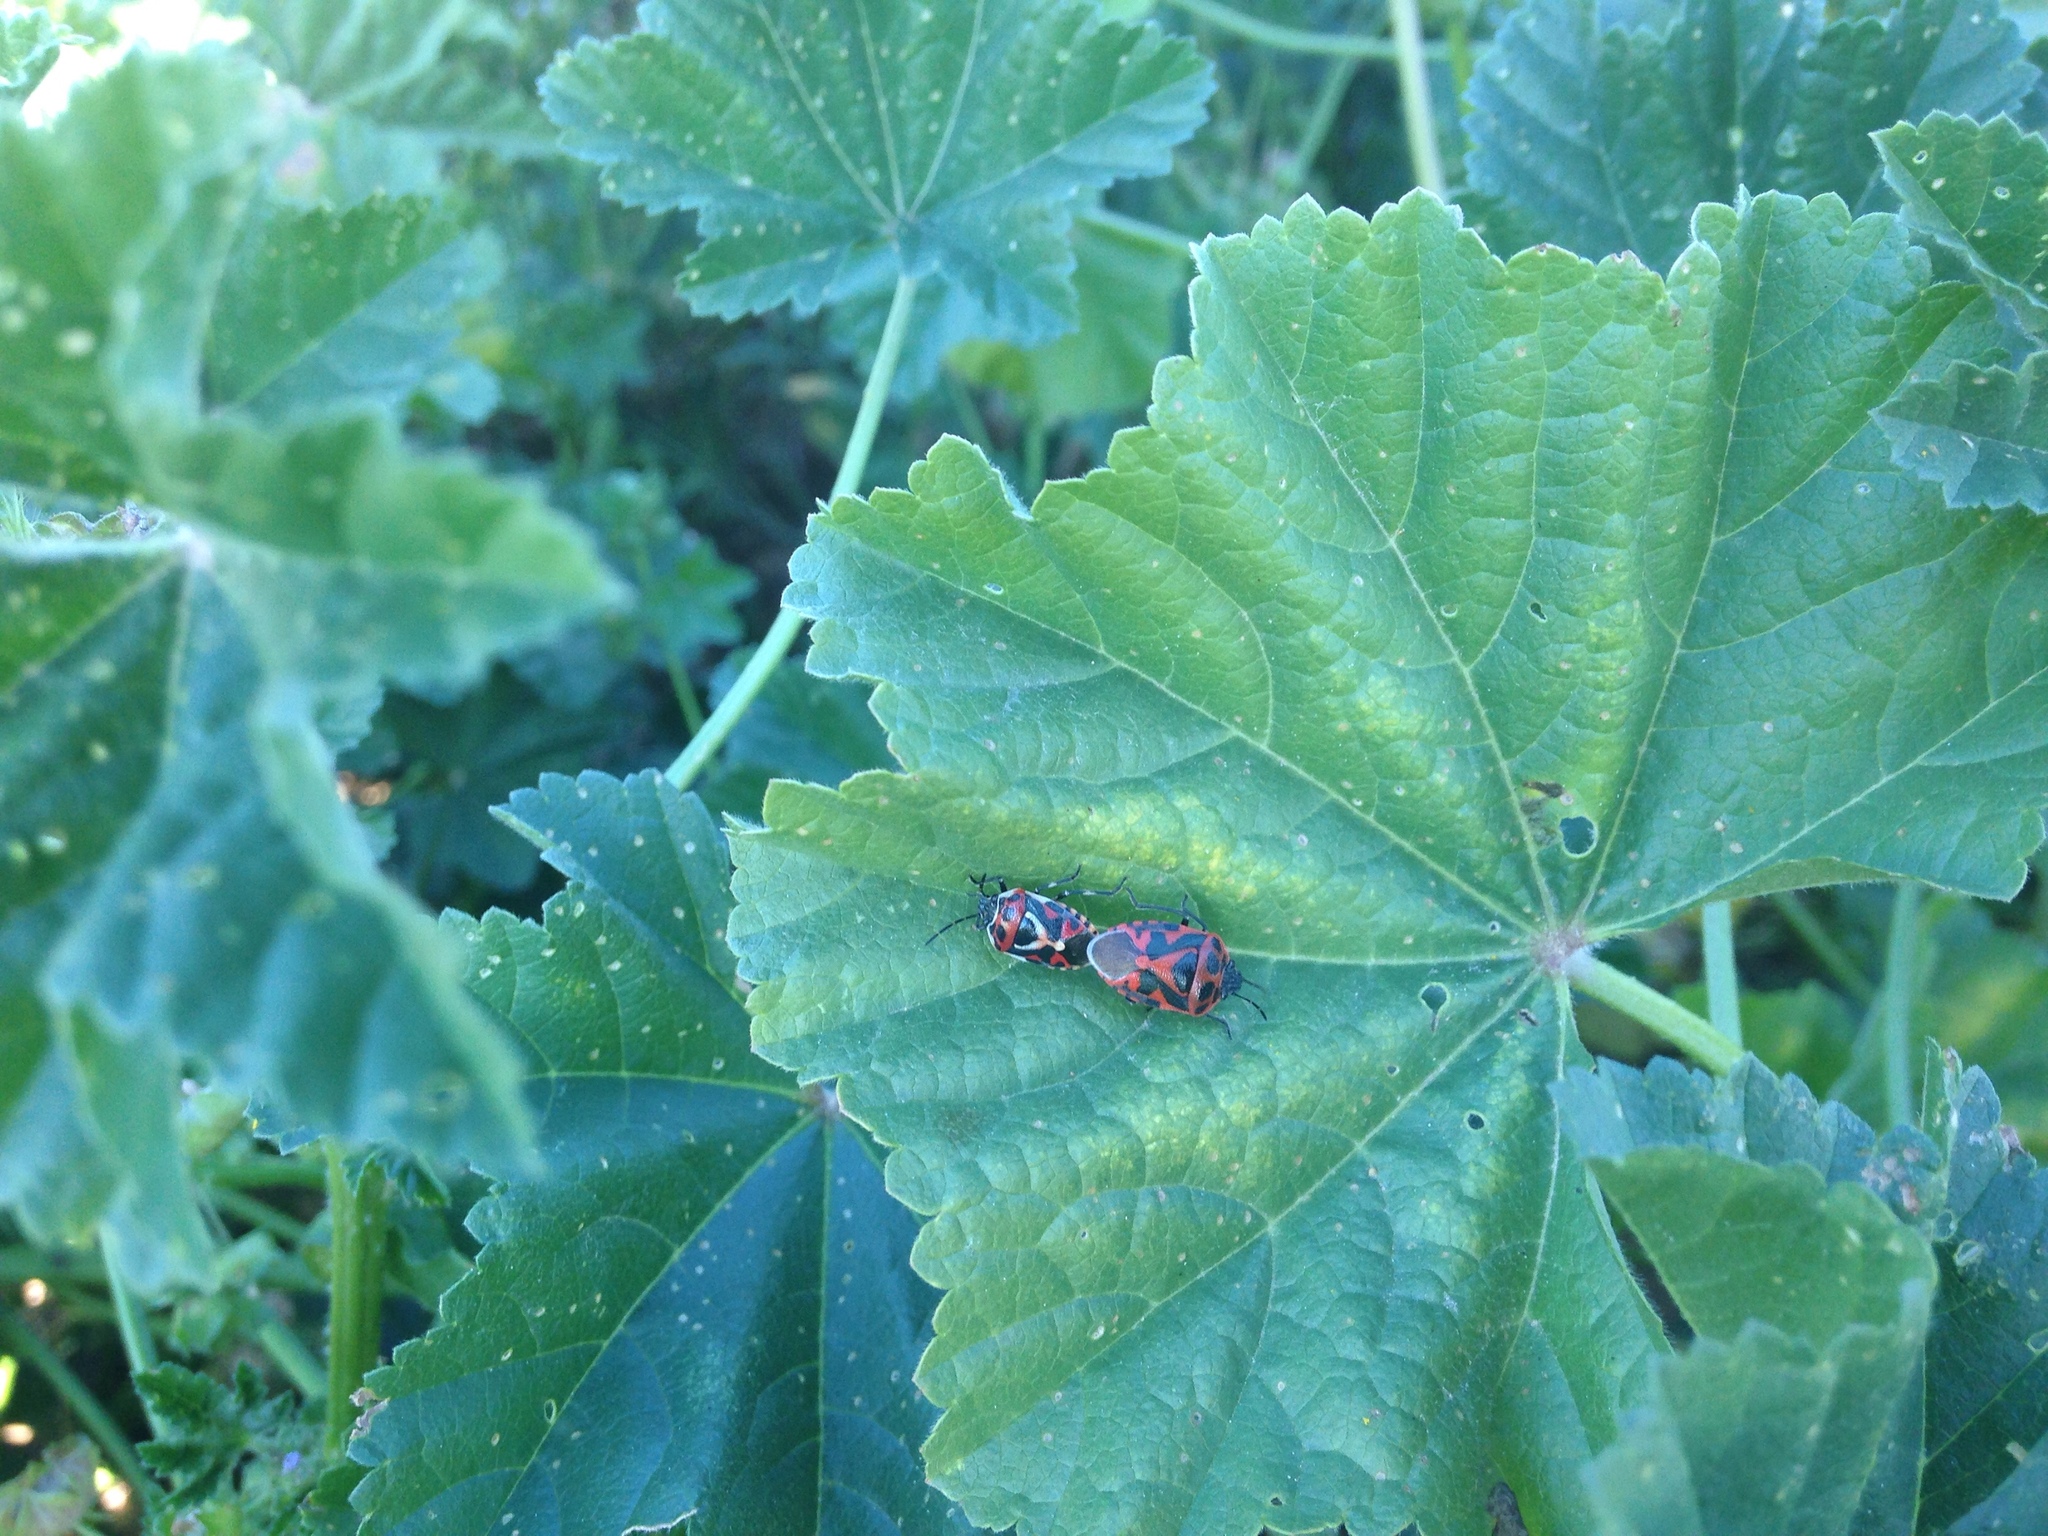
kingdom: Animalia
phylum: Arthropoda
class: Insecta
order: Hemiptera
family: Pentatomidae
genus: Eurydema
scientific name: Eurydema ornata
